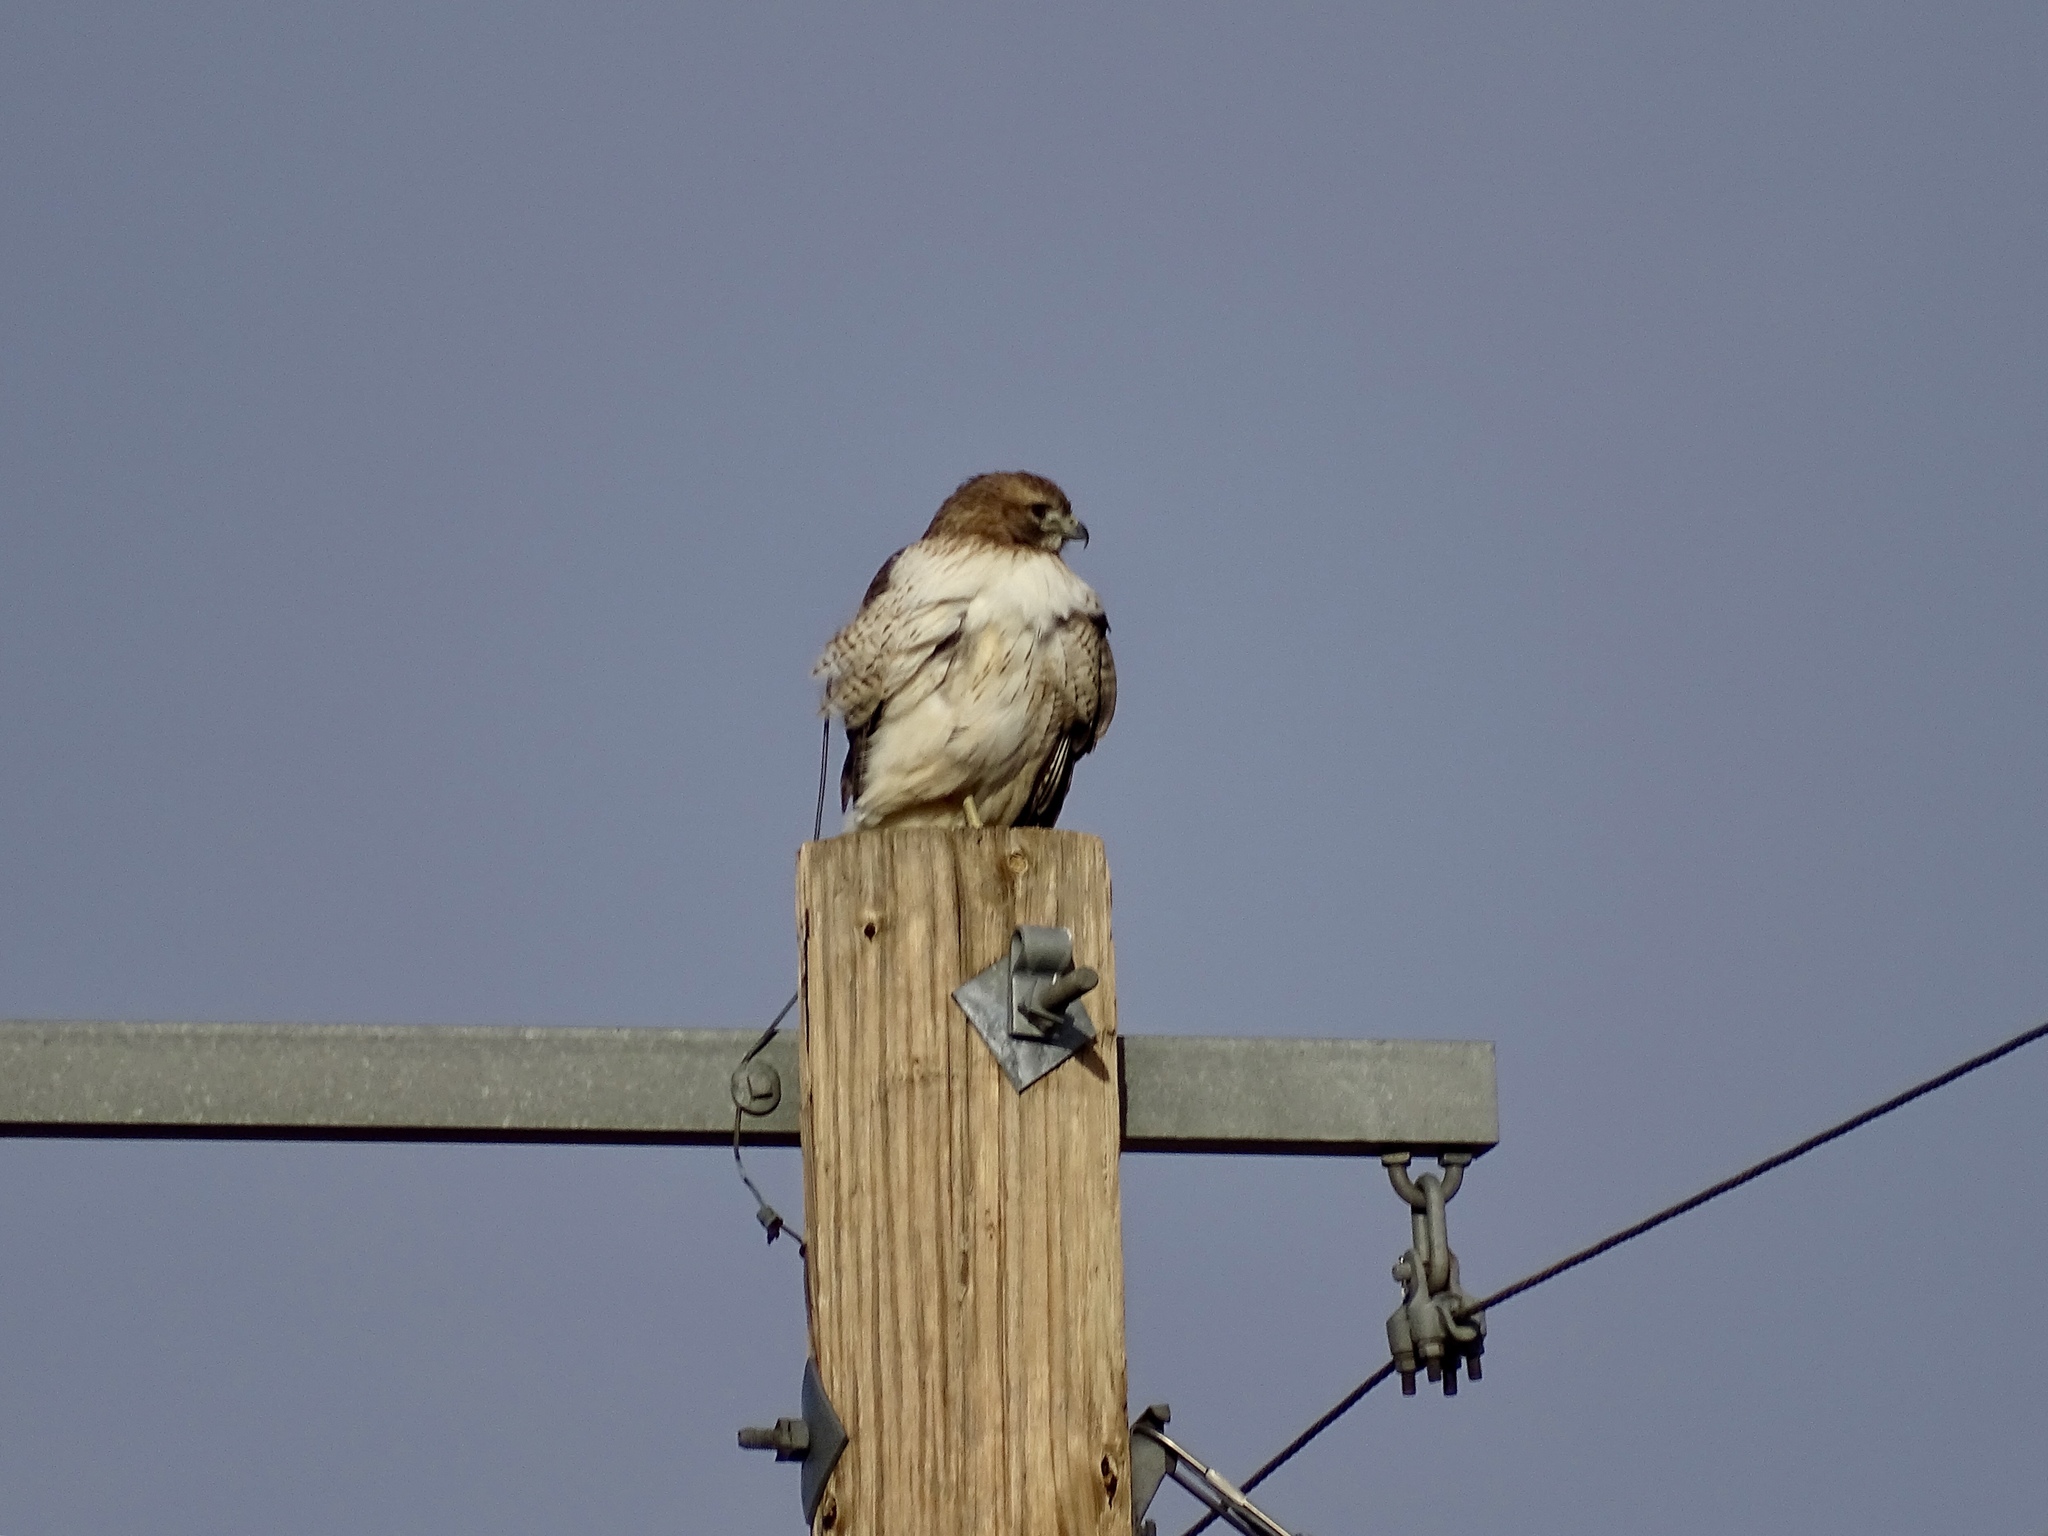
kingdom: Animalia
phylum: Chordata
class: Aves
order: Accipitriformes
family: Accipitridae
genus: Buteo
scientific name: Buteo jamaicensis
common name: Red-tailed hawk
